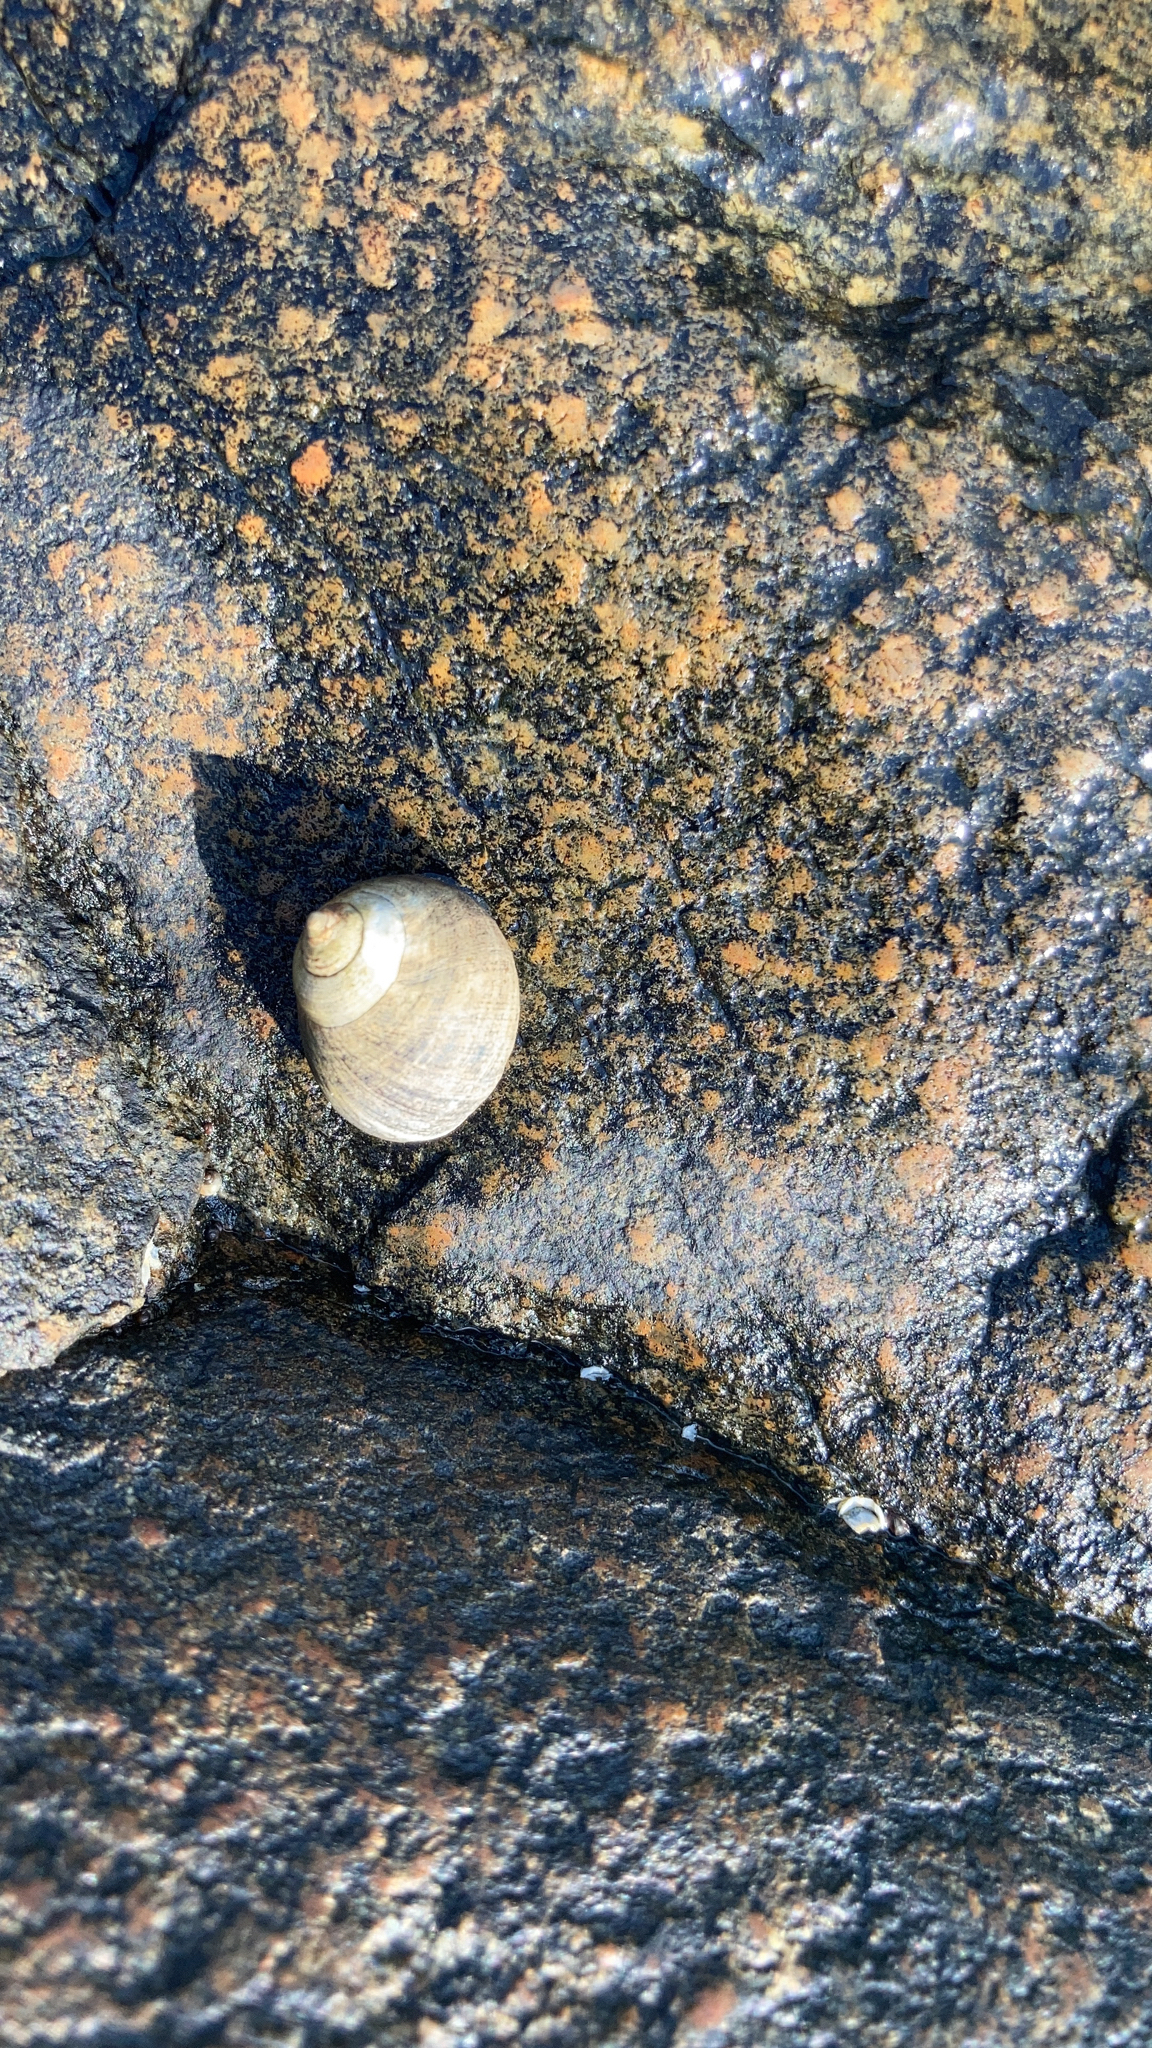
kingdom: Animalia
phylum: Mollusca
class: Gastropoda
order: Littorinimorpha
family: Littorinidae
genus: Littorina
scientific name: Littorina littorea
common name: Common periwinkle
